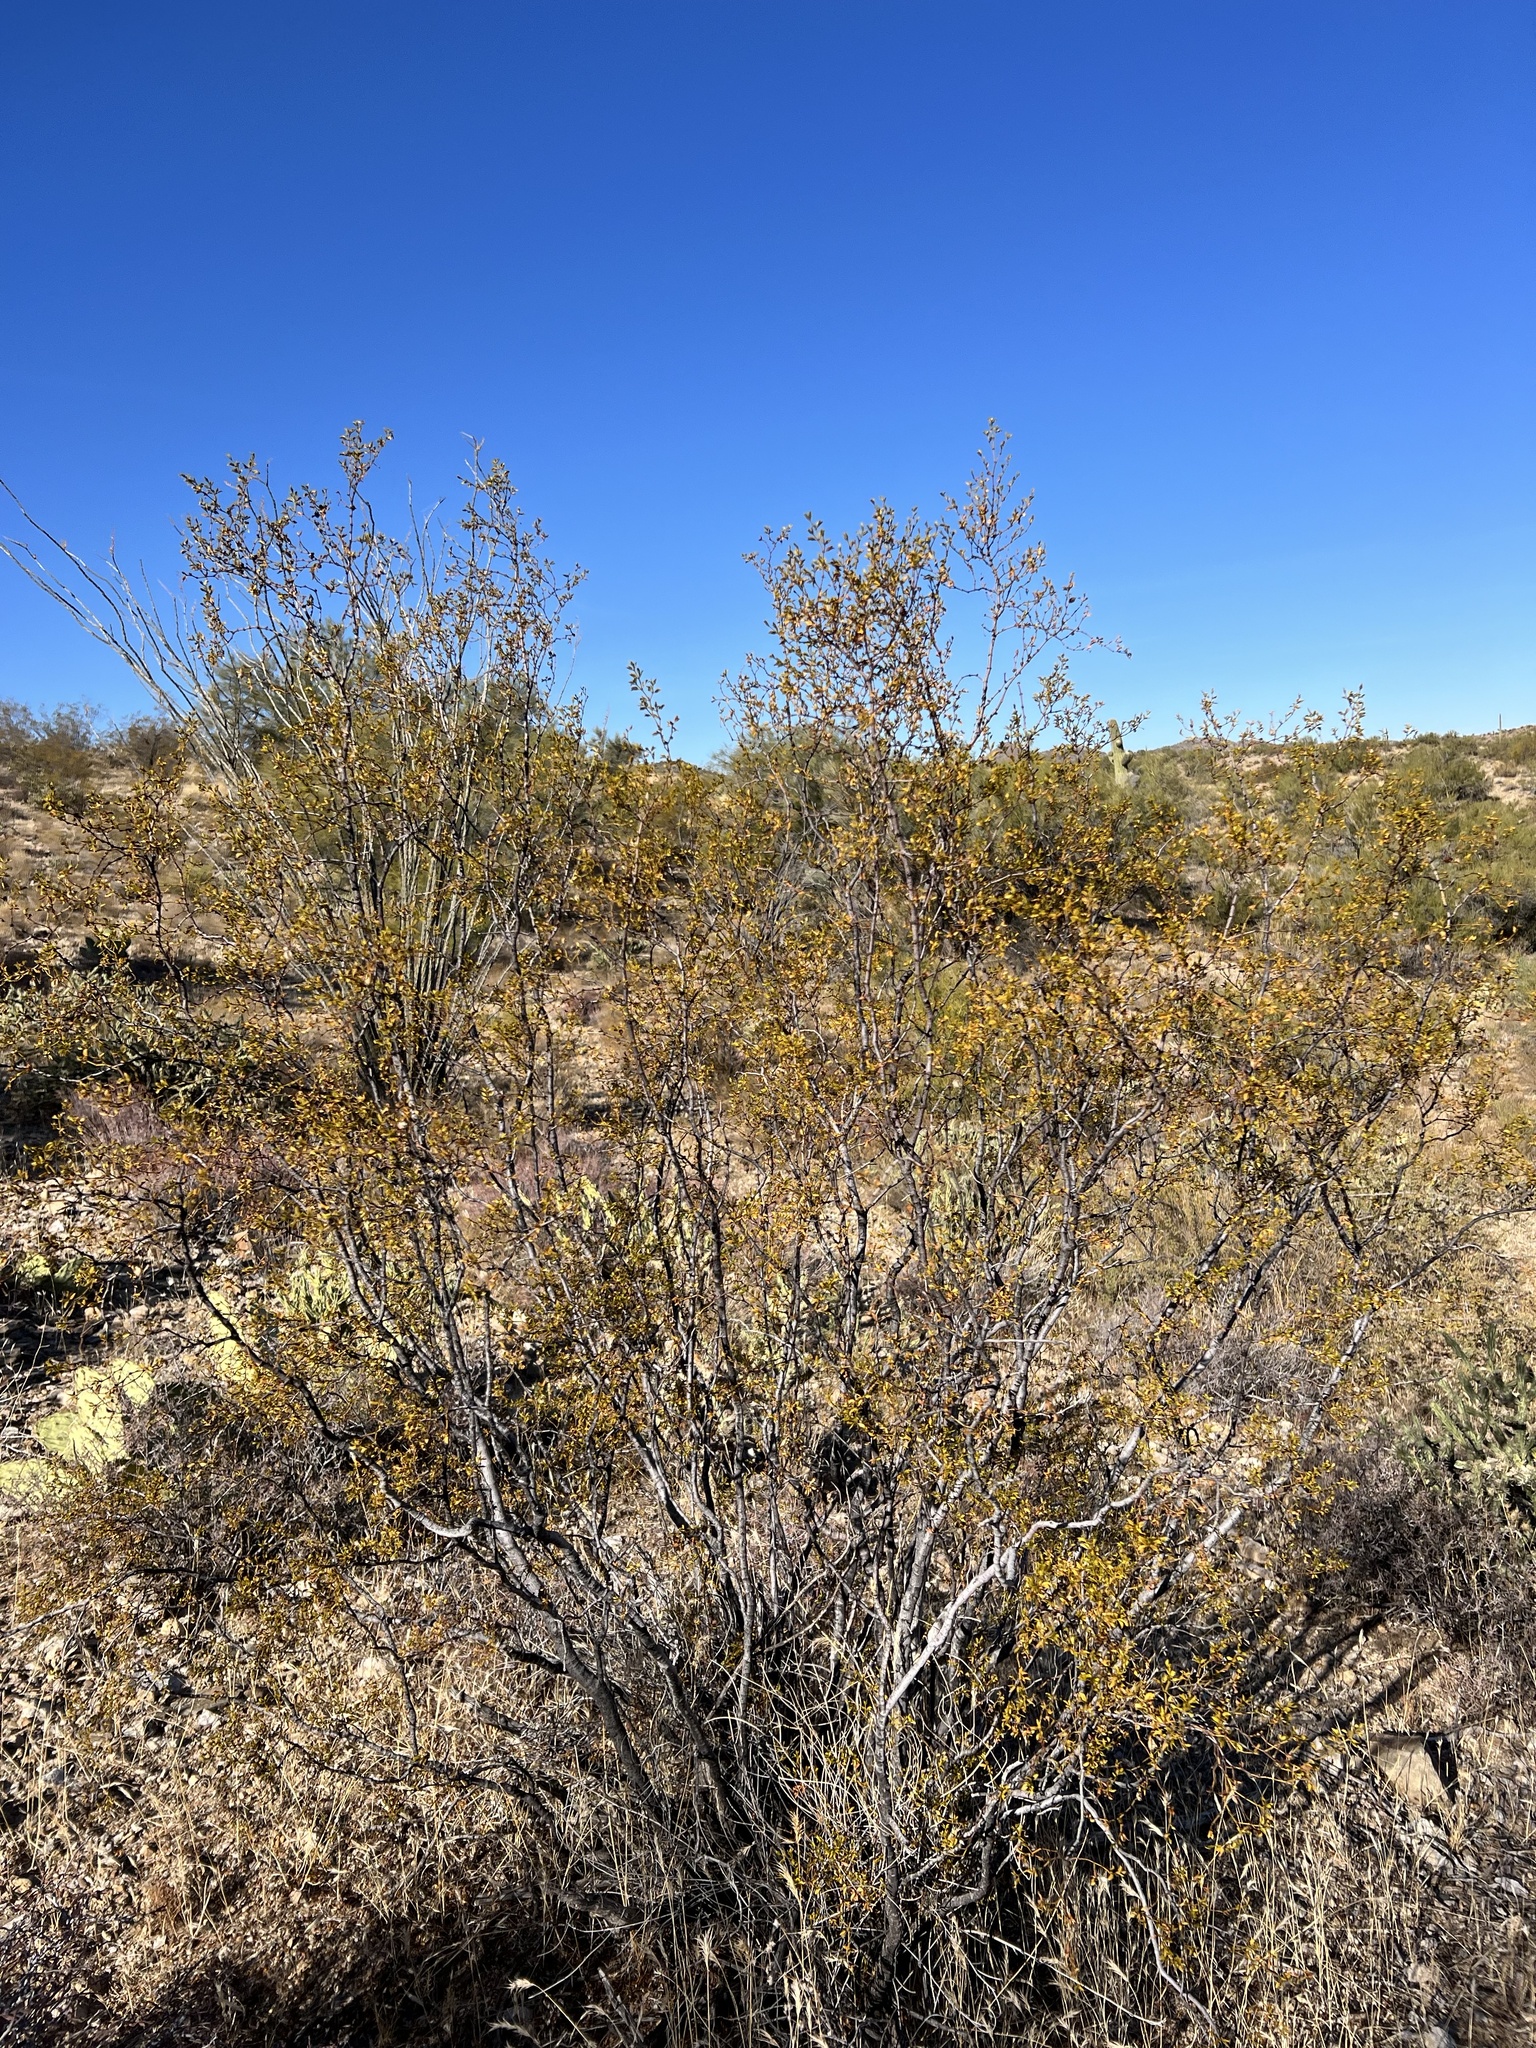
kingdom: Plantae
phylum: Tracheophyta
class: Magnoliopsida
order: Zygophyllales
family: Zygophyllaceae
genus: Larrea
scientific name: Larrea tridentata
